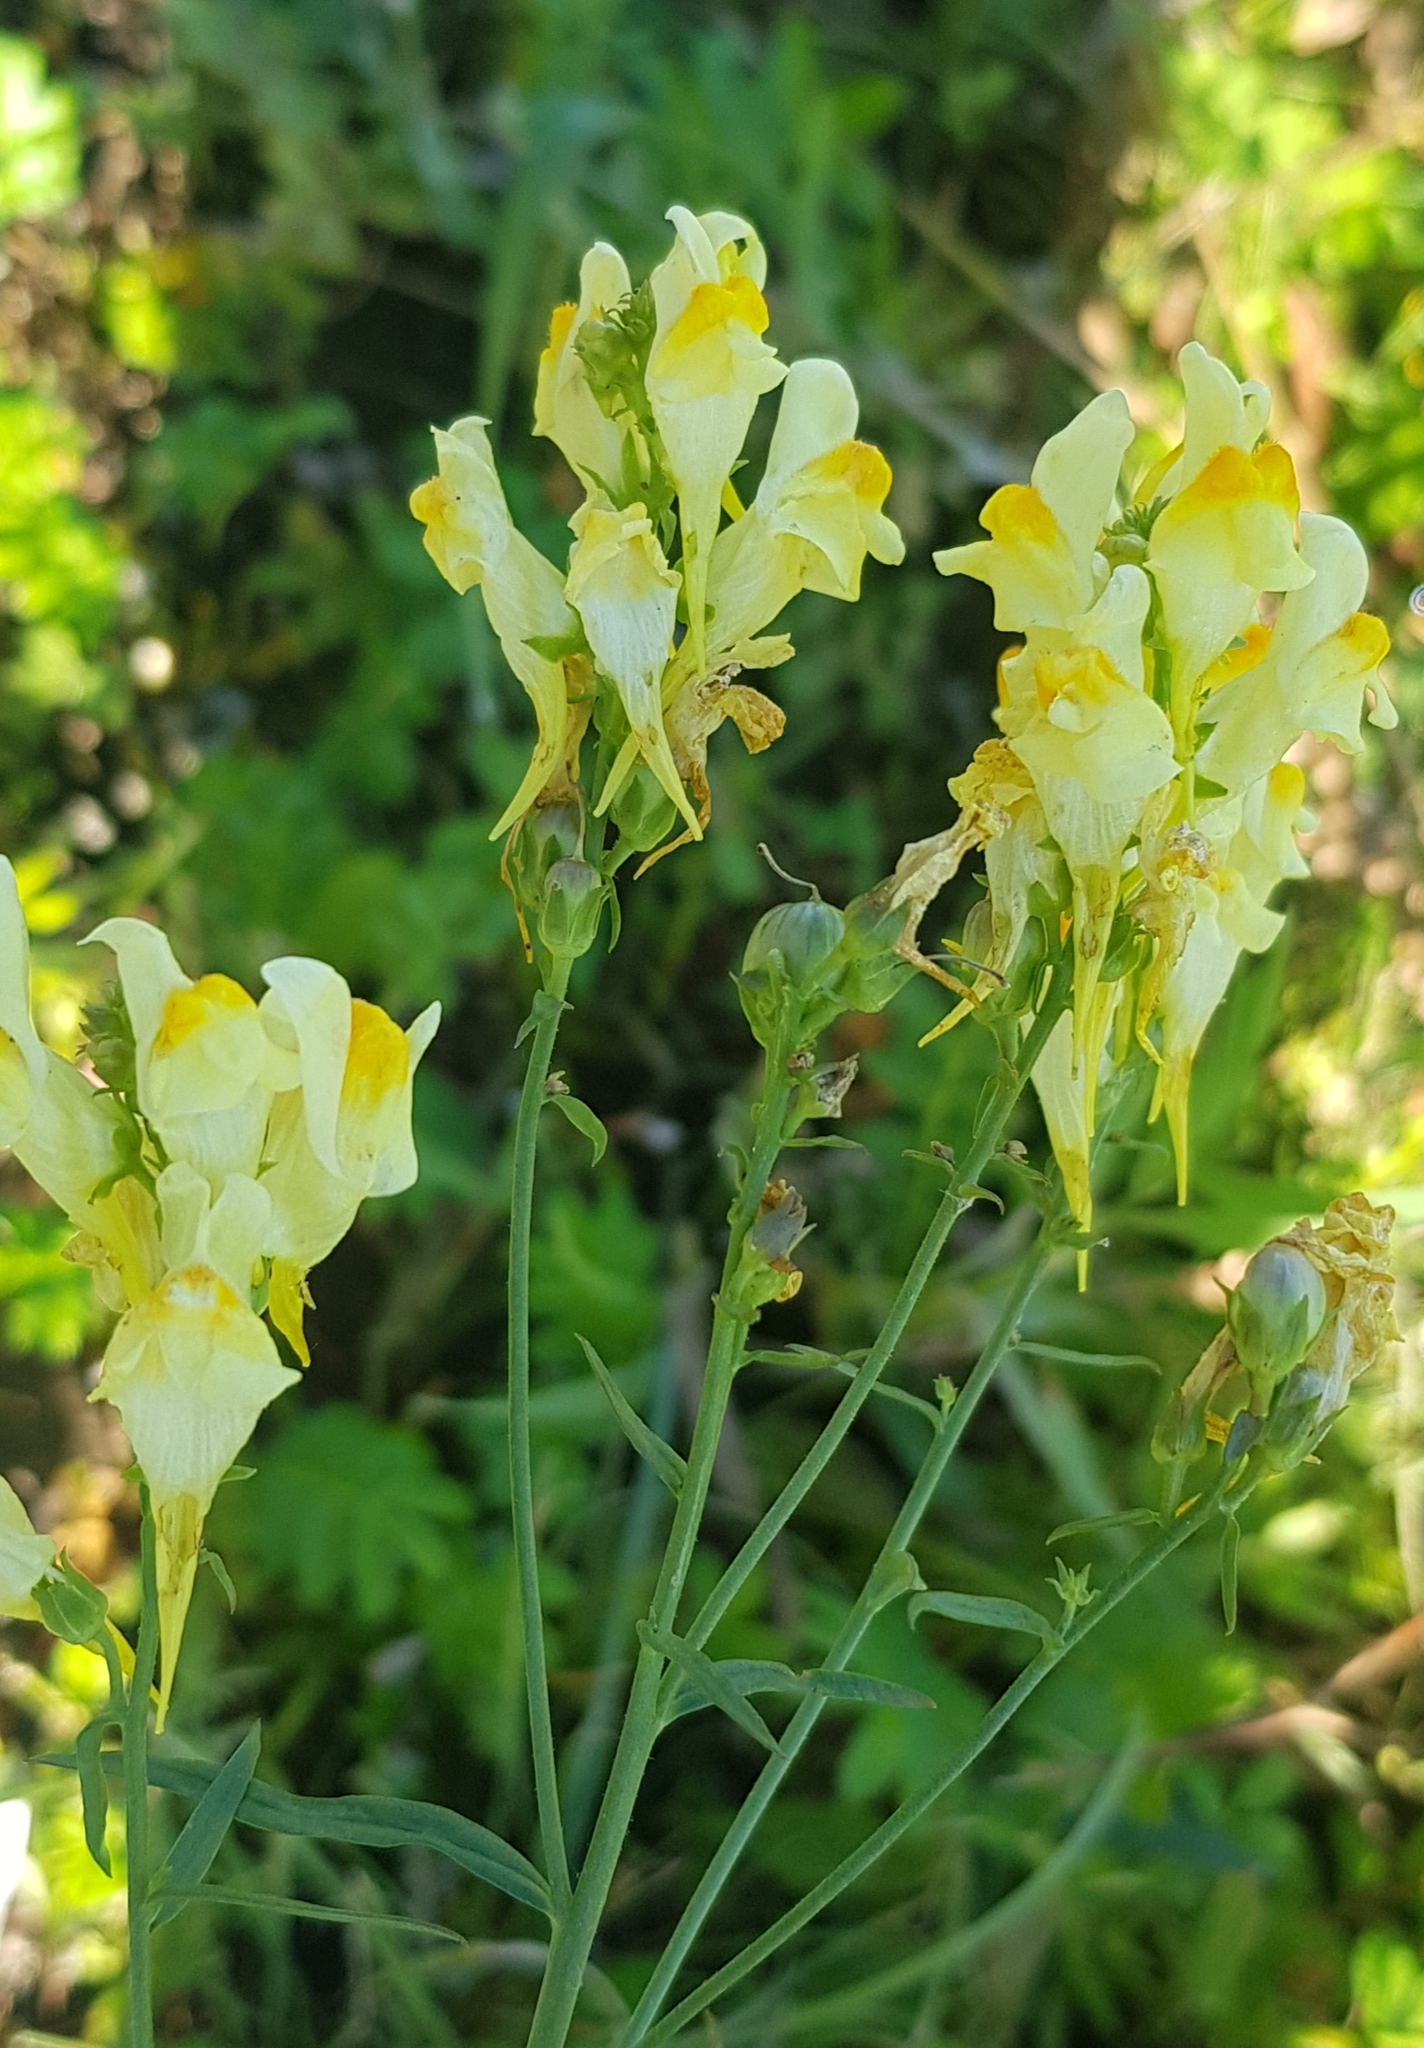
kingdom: Plantae
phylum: Tracheophyta
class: Magnoliopsida
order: Lamiales
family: Plantaginaceae
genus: Linaria
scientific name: Linaria buriatica
